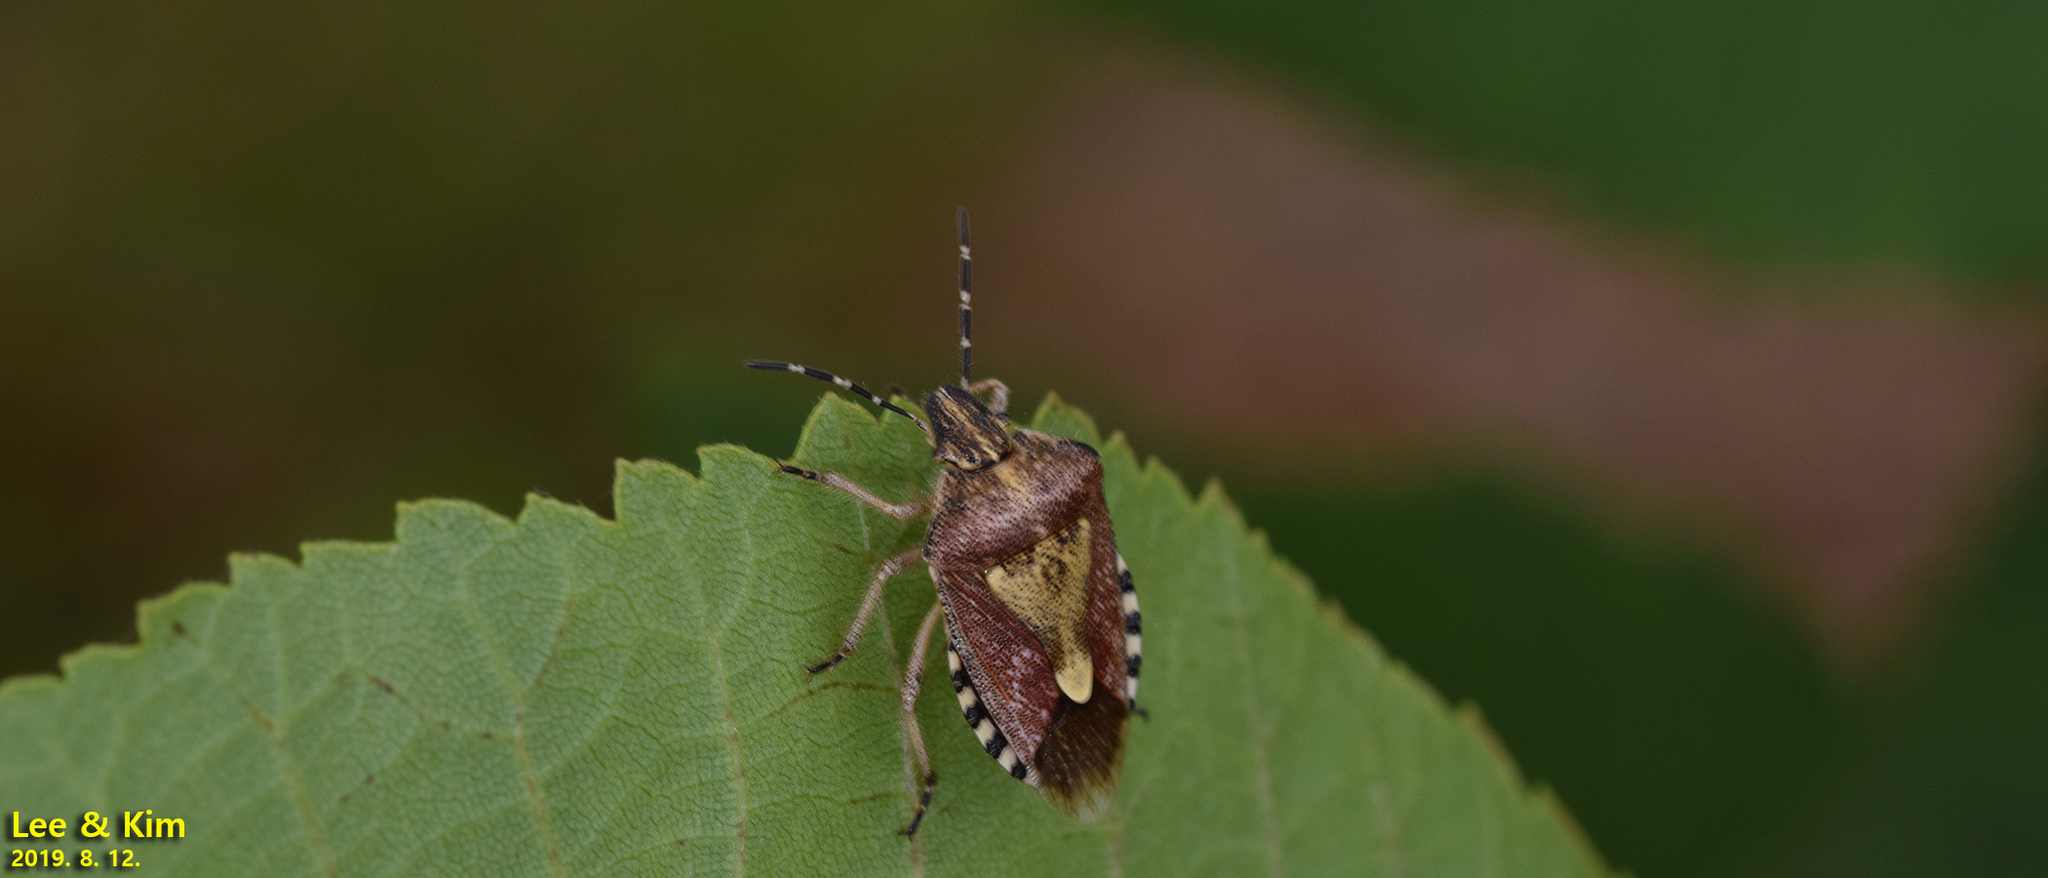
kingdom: Animalia
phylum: Arthropoda
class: Insecta
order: Hemiptera
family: Pentatomidae
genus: Dolycoris
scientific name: Dolycoris baccarum
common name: Sloe bug
